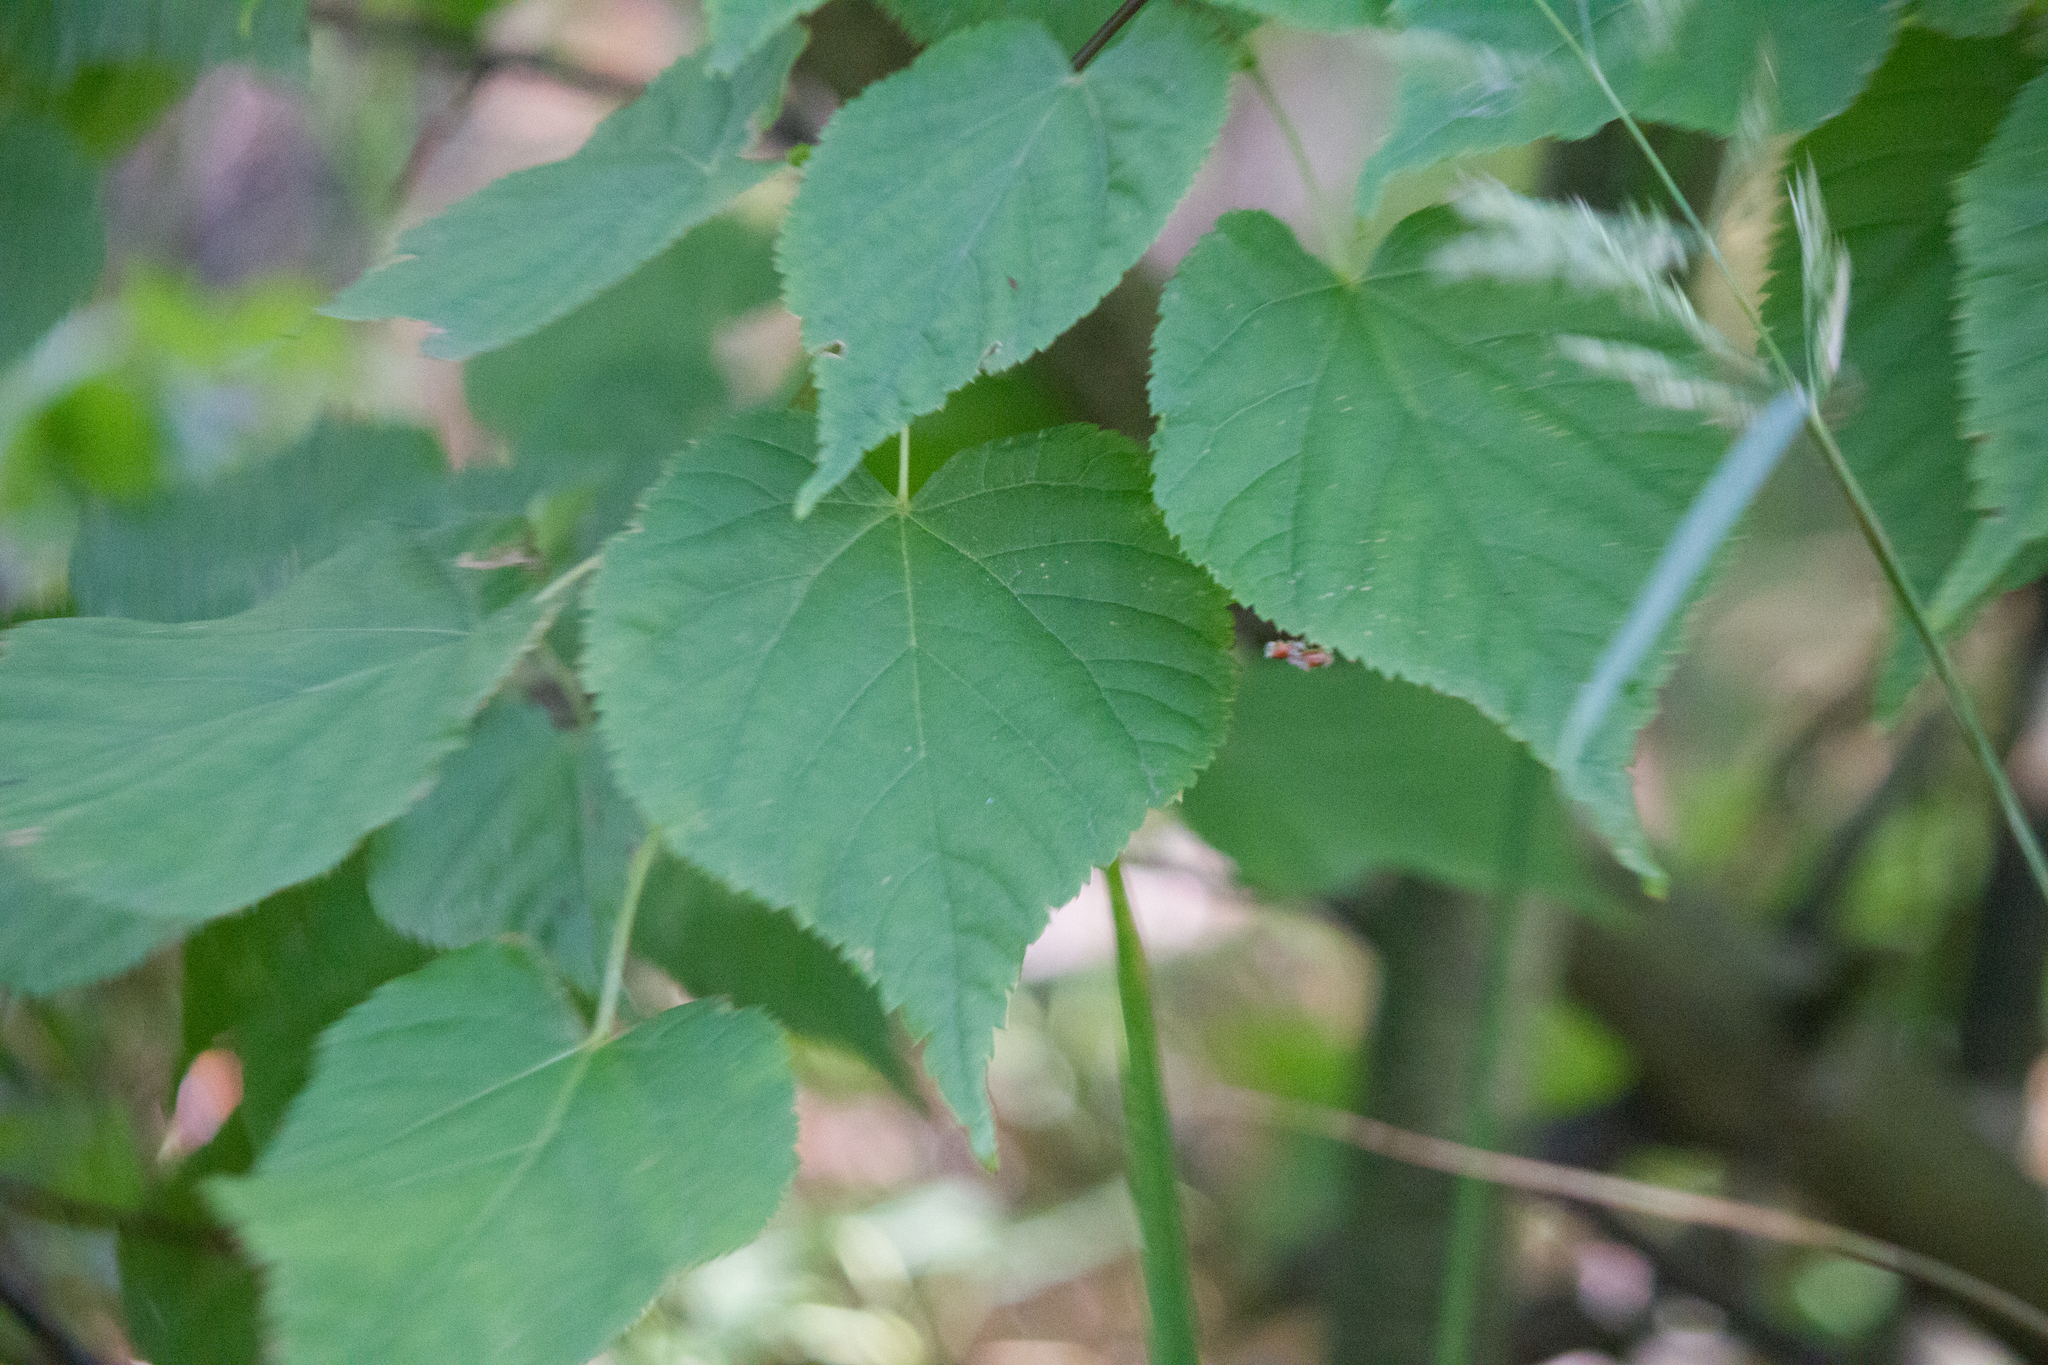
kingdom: Plantae
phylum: Tracheophyta
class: Magnoliopsida
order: Malvales
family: Malvaceae
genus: Tilia
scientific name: Tilia cordata
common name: Small-leaved lime
